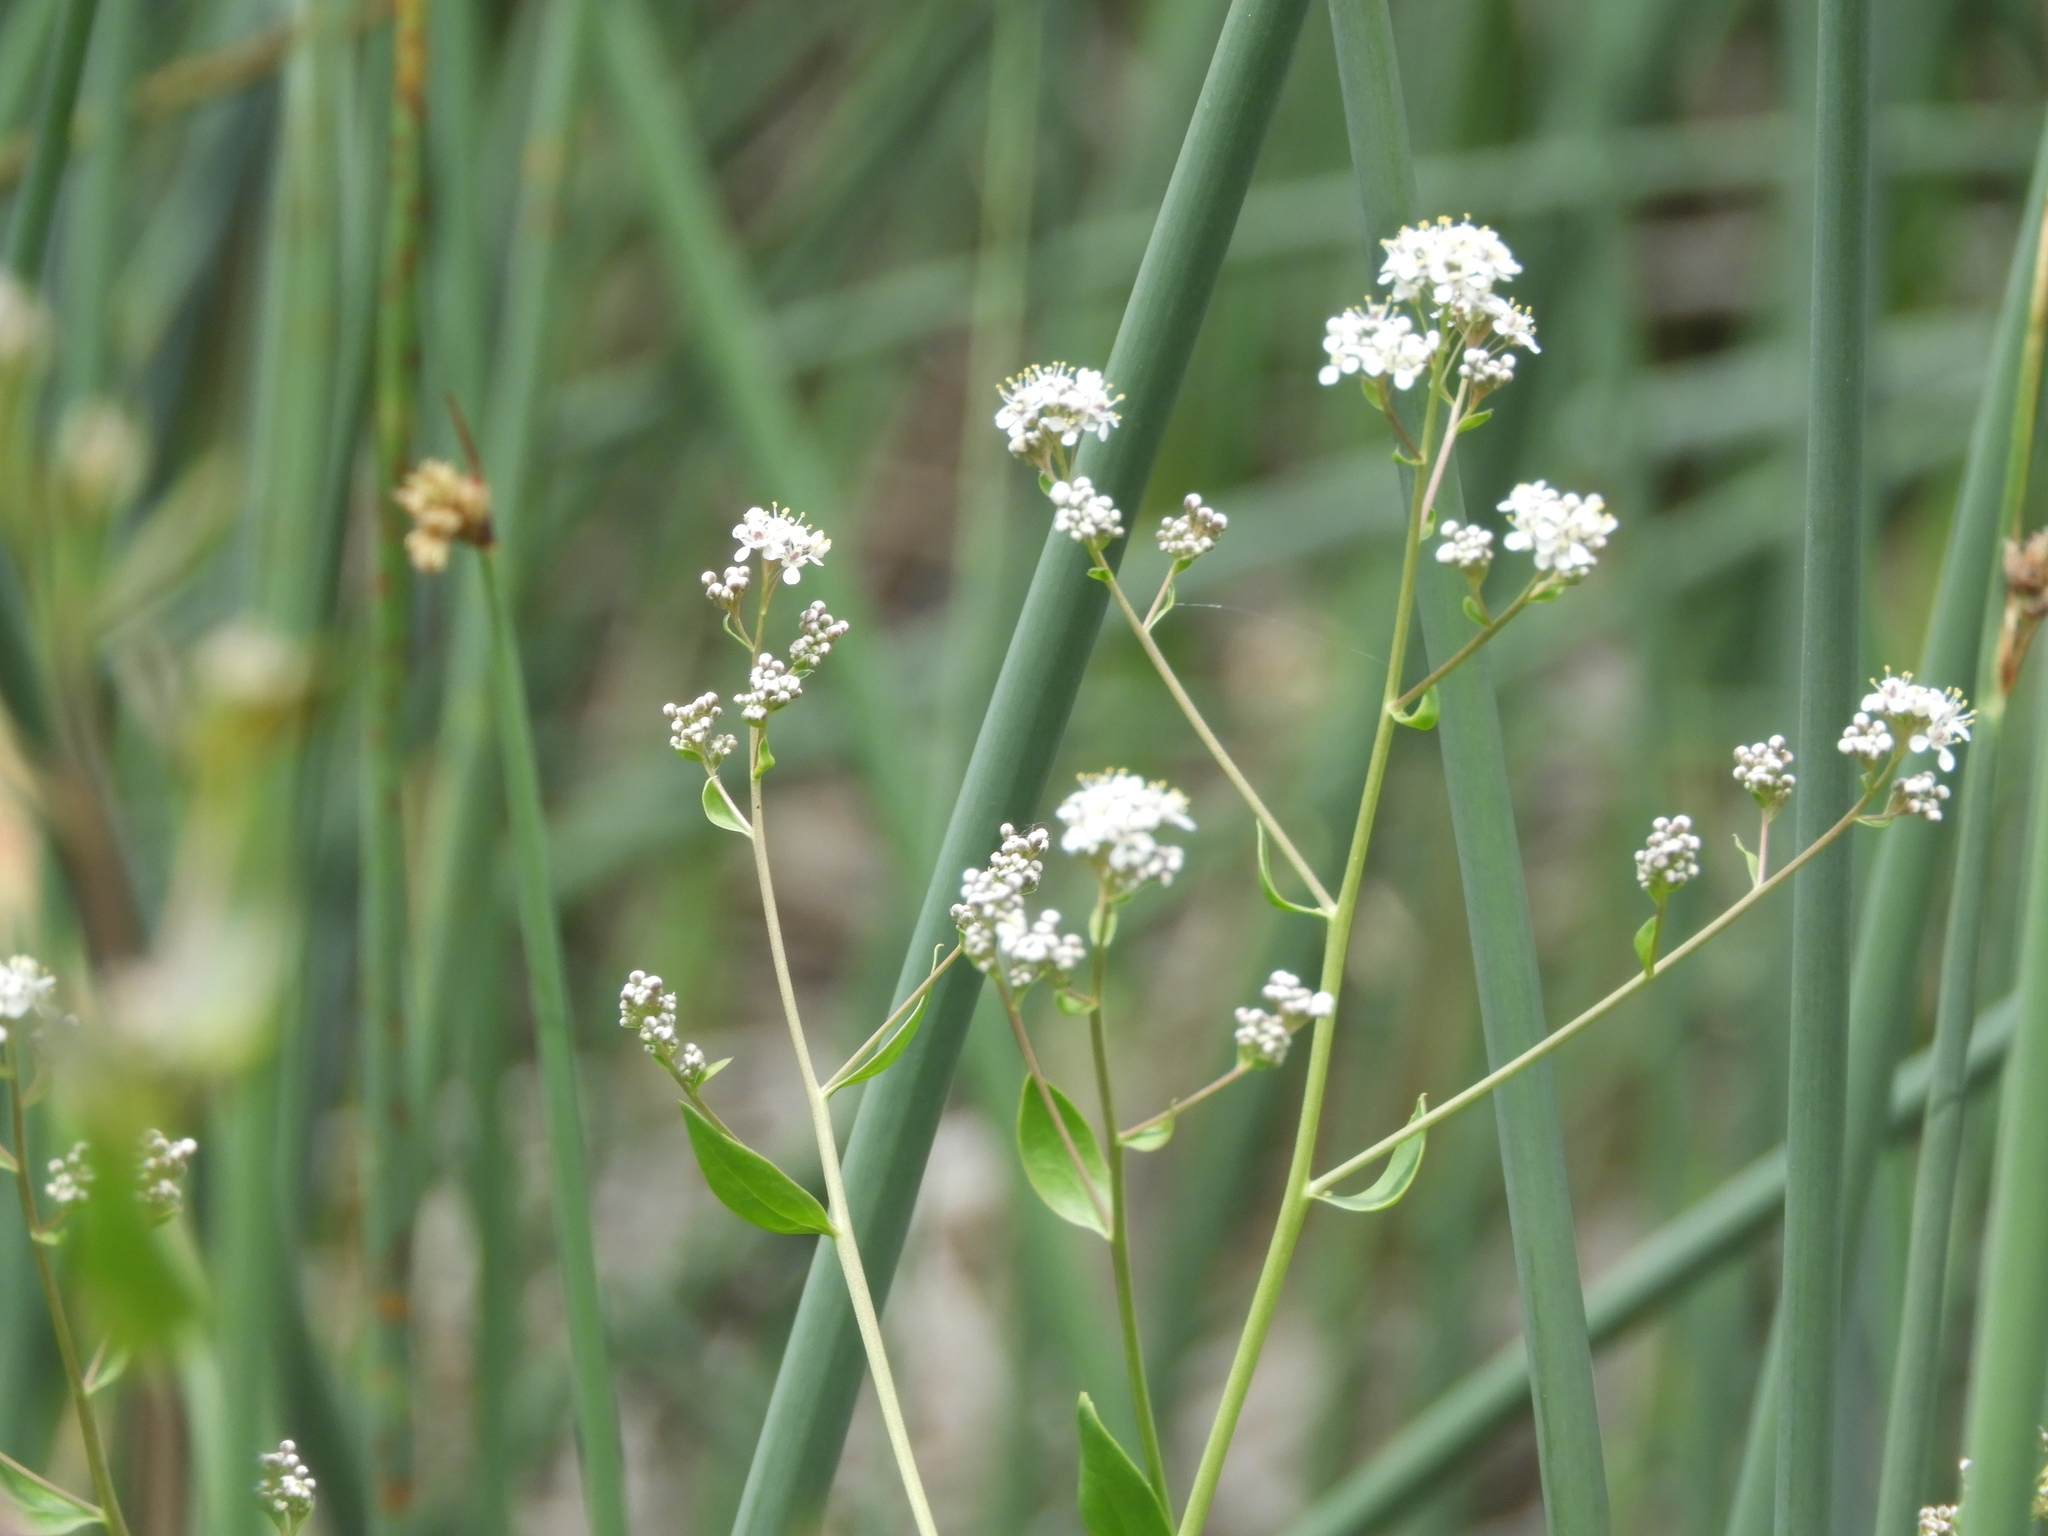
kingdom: Plantae
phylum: Tracheophyta
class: Magnoliopsida
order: Brassicales
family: Brassicaceae
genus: Lepidium
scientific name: Lepidium latifolium
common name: Dittander
